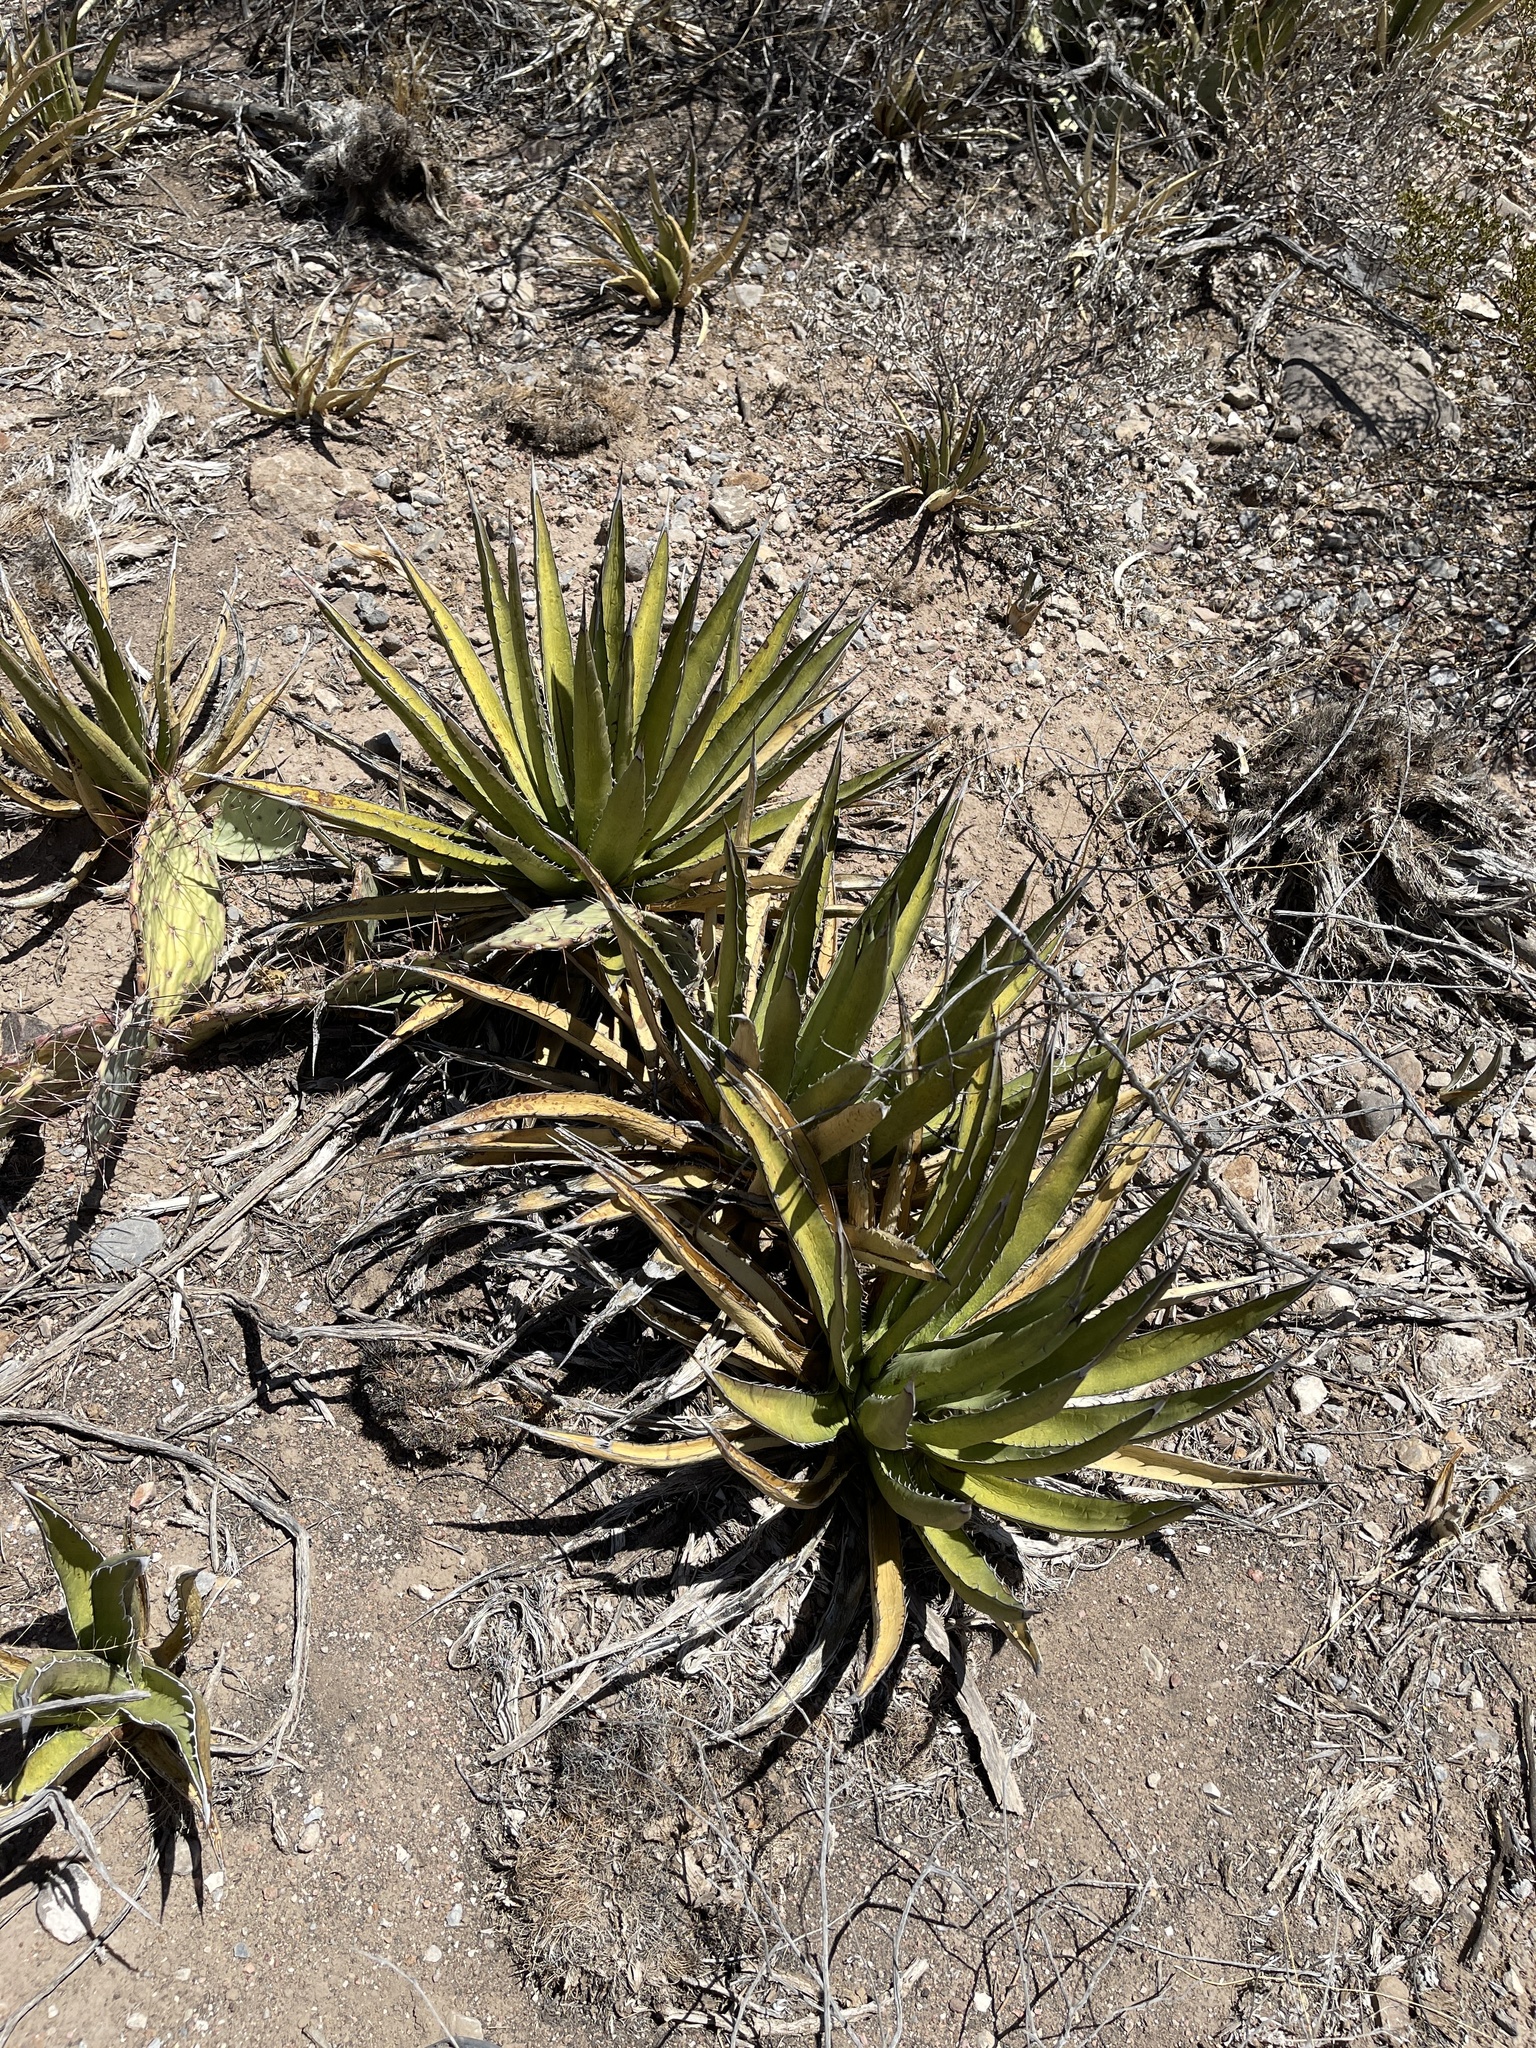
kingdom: Plantae
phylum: Tracheophyta
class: Liliopsida
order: Asparagales
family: Asparagaceae
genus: Agave
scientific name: Agave lechuguilla
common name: Lecheguilla agave
